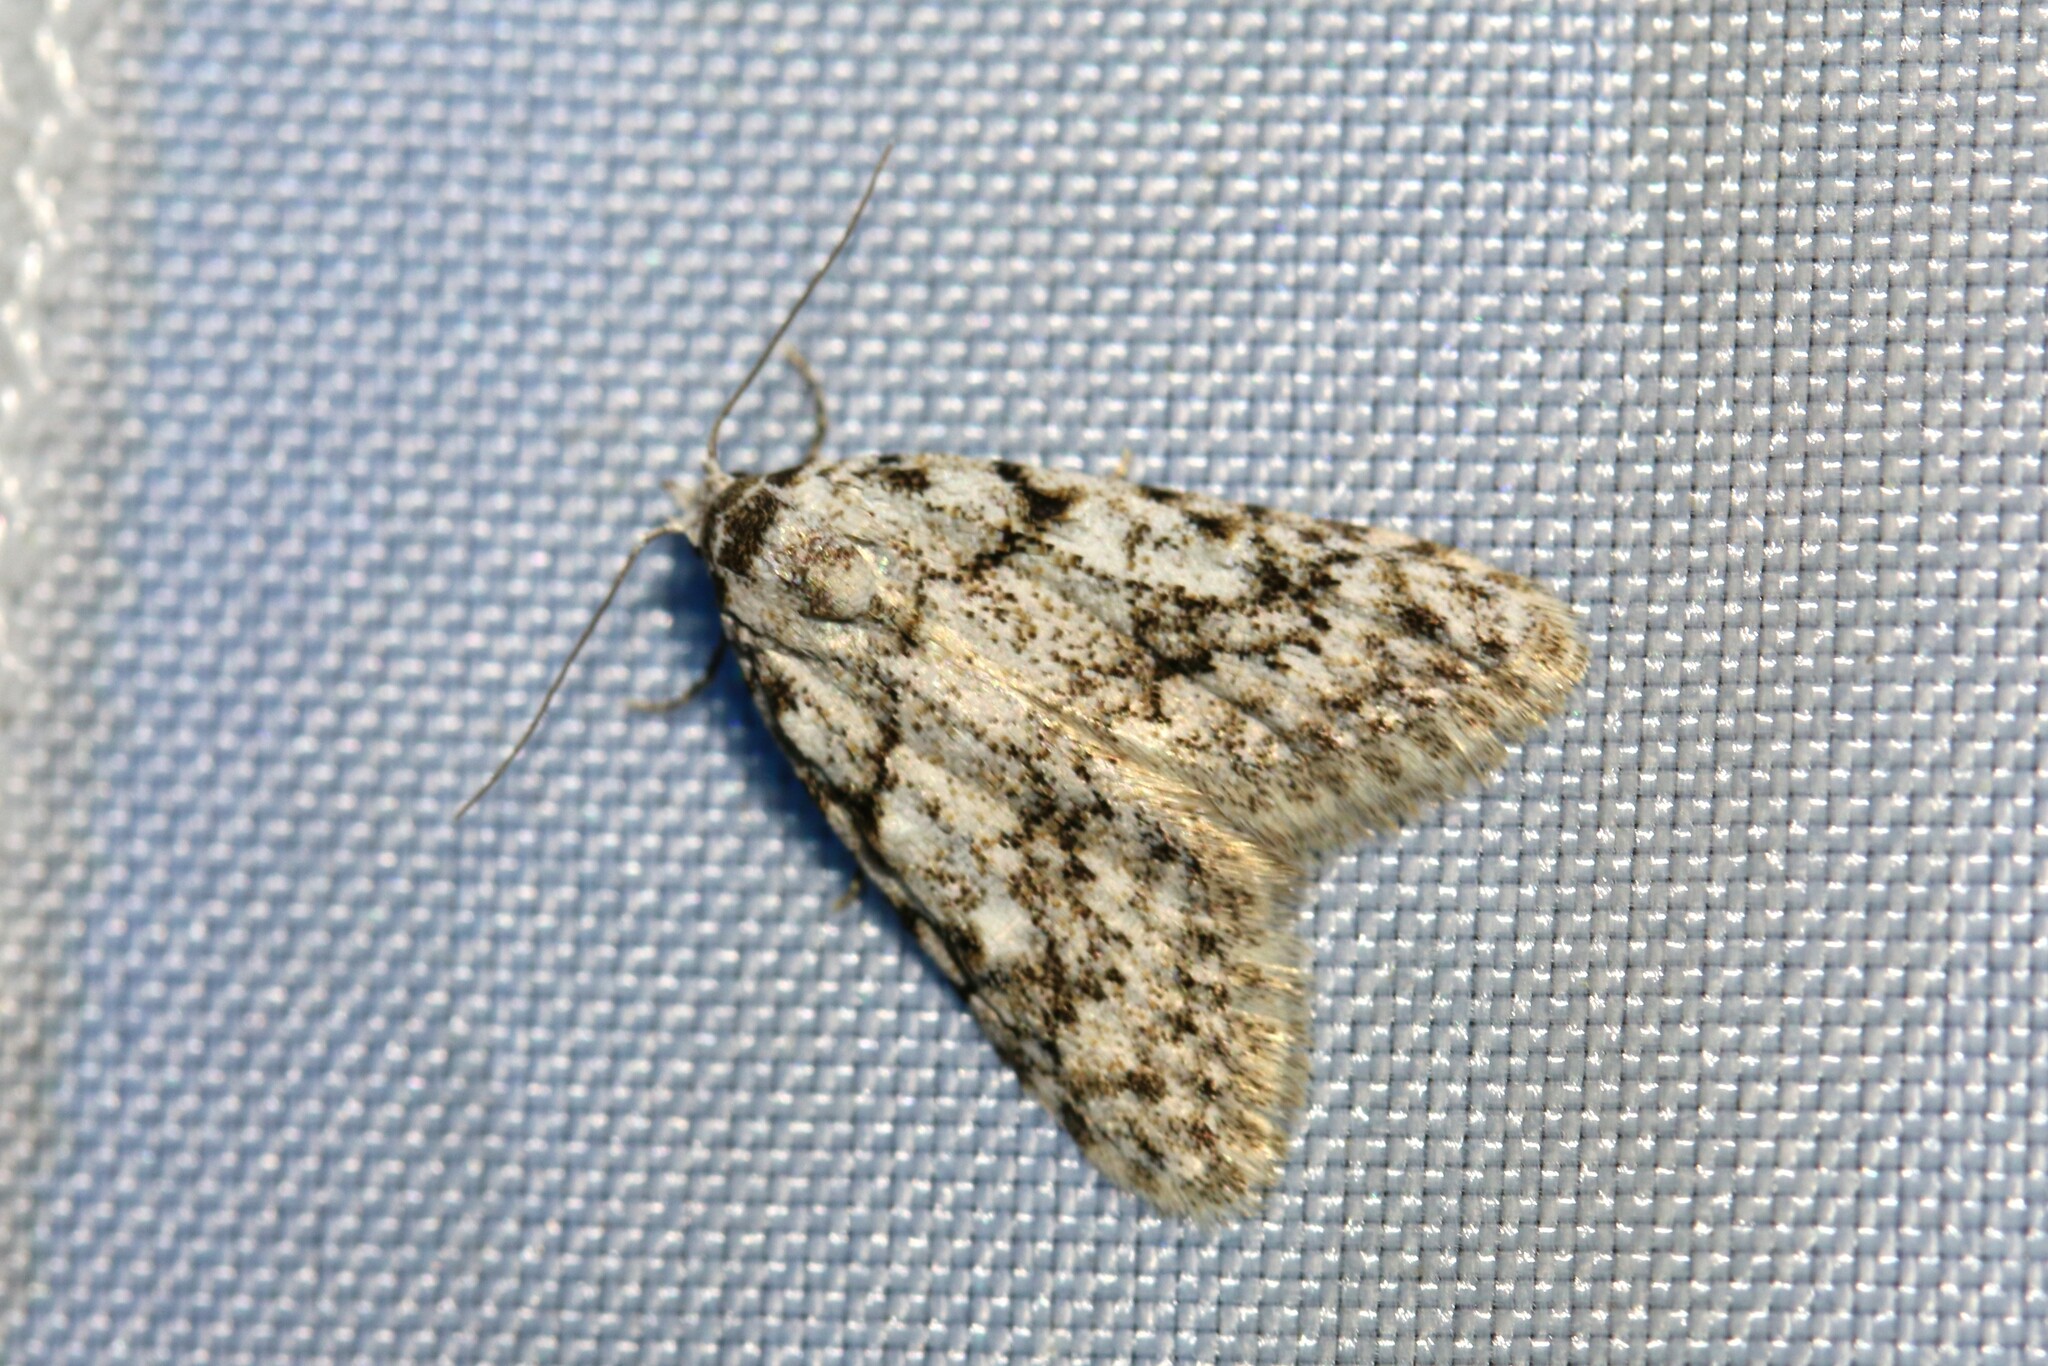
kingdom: Animalia
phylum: Arthropoda
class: Insecta
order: Lepidoptera
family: Nolidae
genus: Nola
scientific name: Nola cicatricalis
